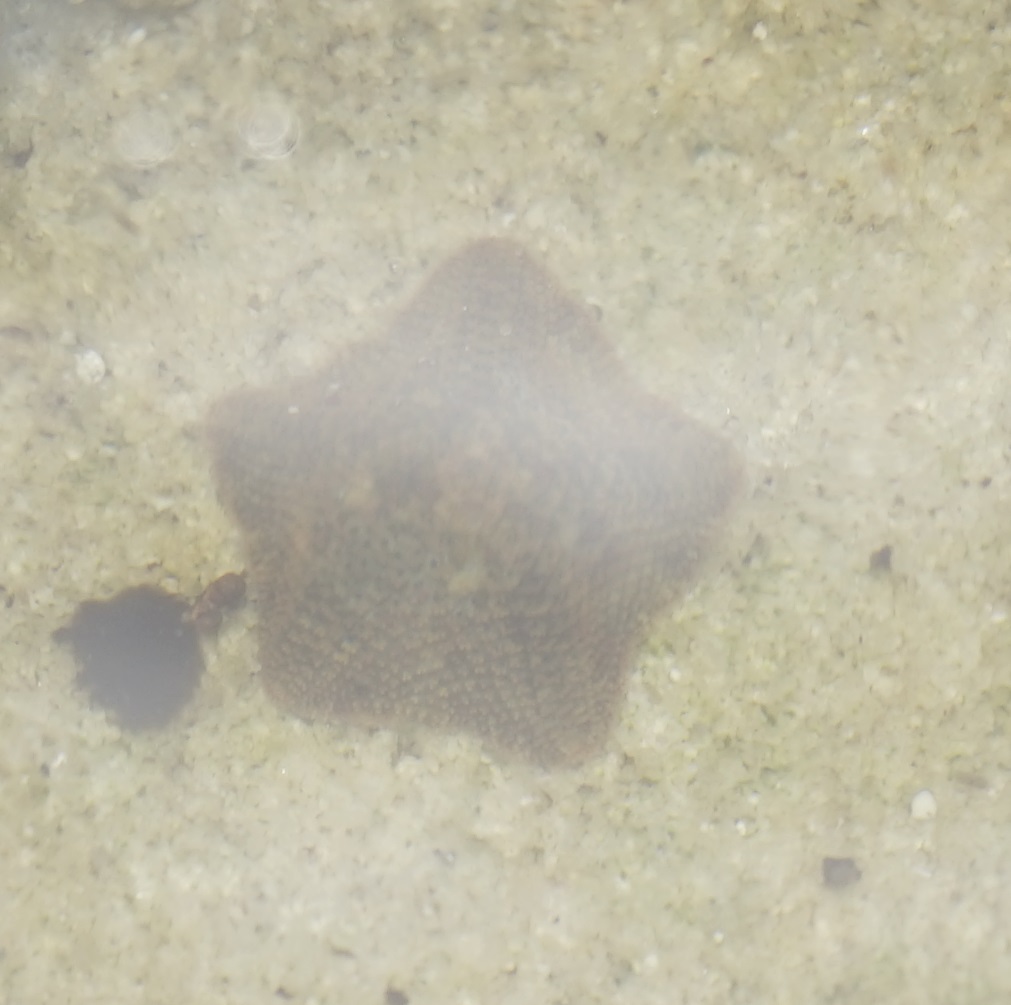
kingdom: Animalia
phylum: Echinodermata
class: Asteroidea
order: Valvatida
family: Asterinidae
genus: Parvulastra
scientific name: Parvulastra exigua
